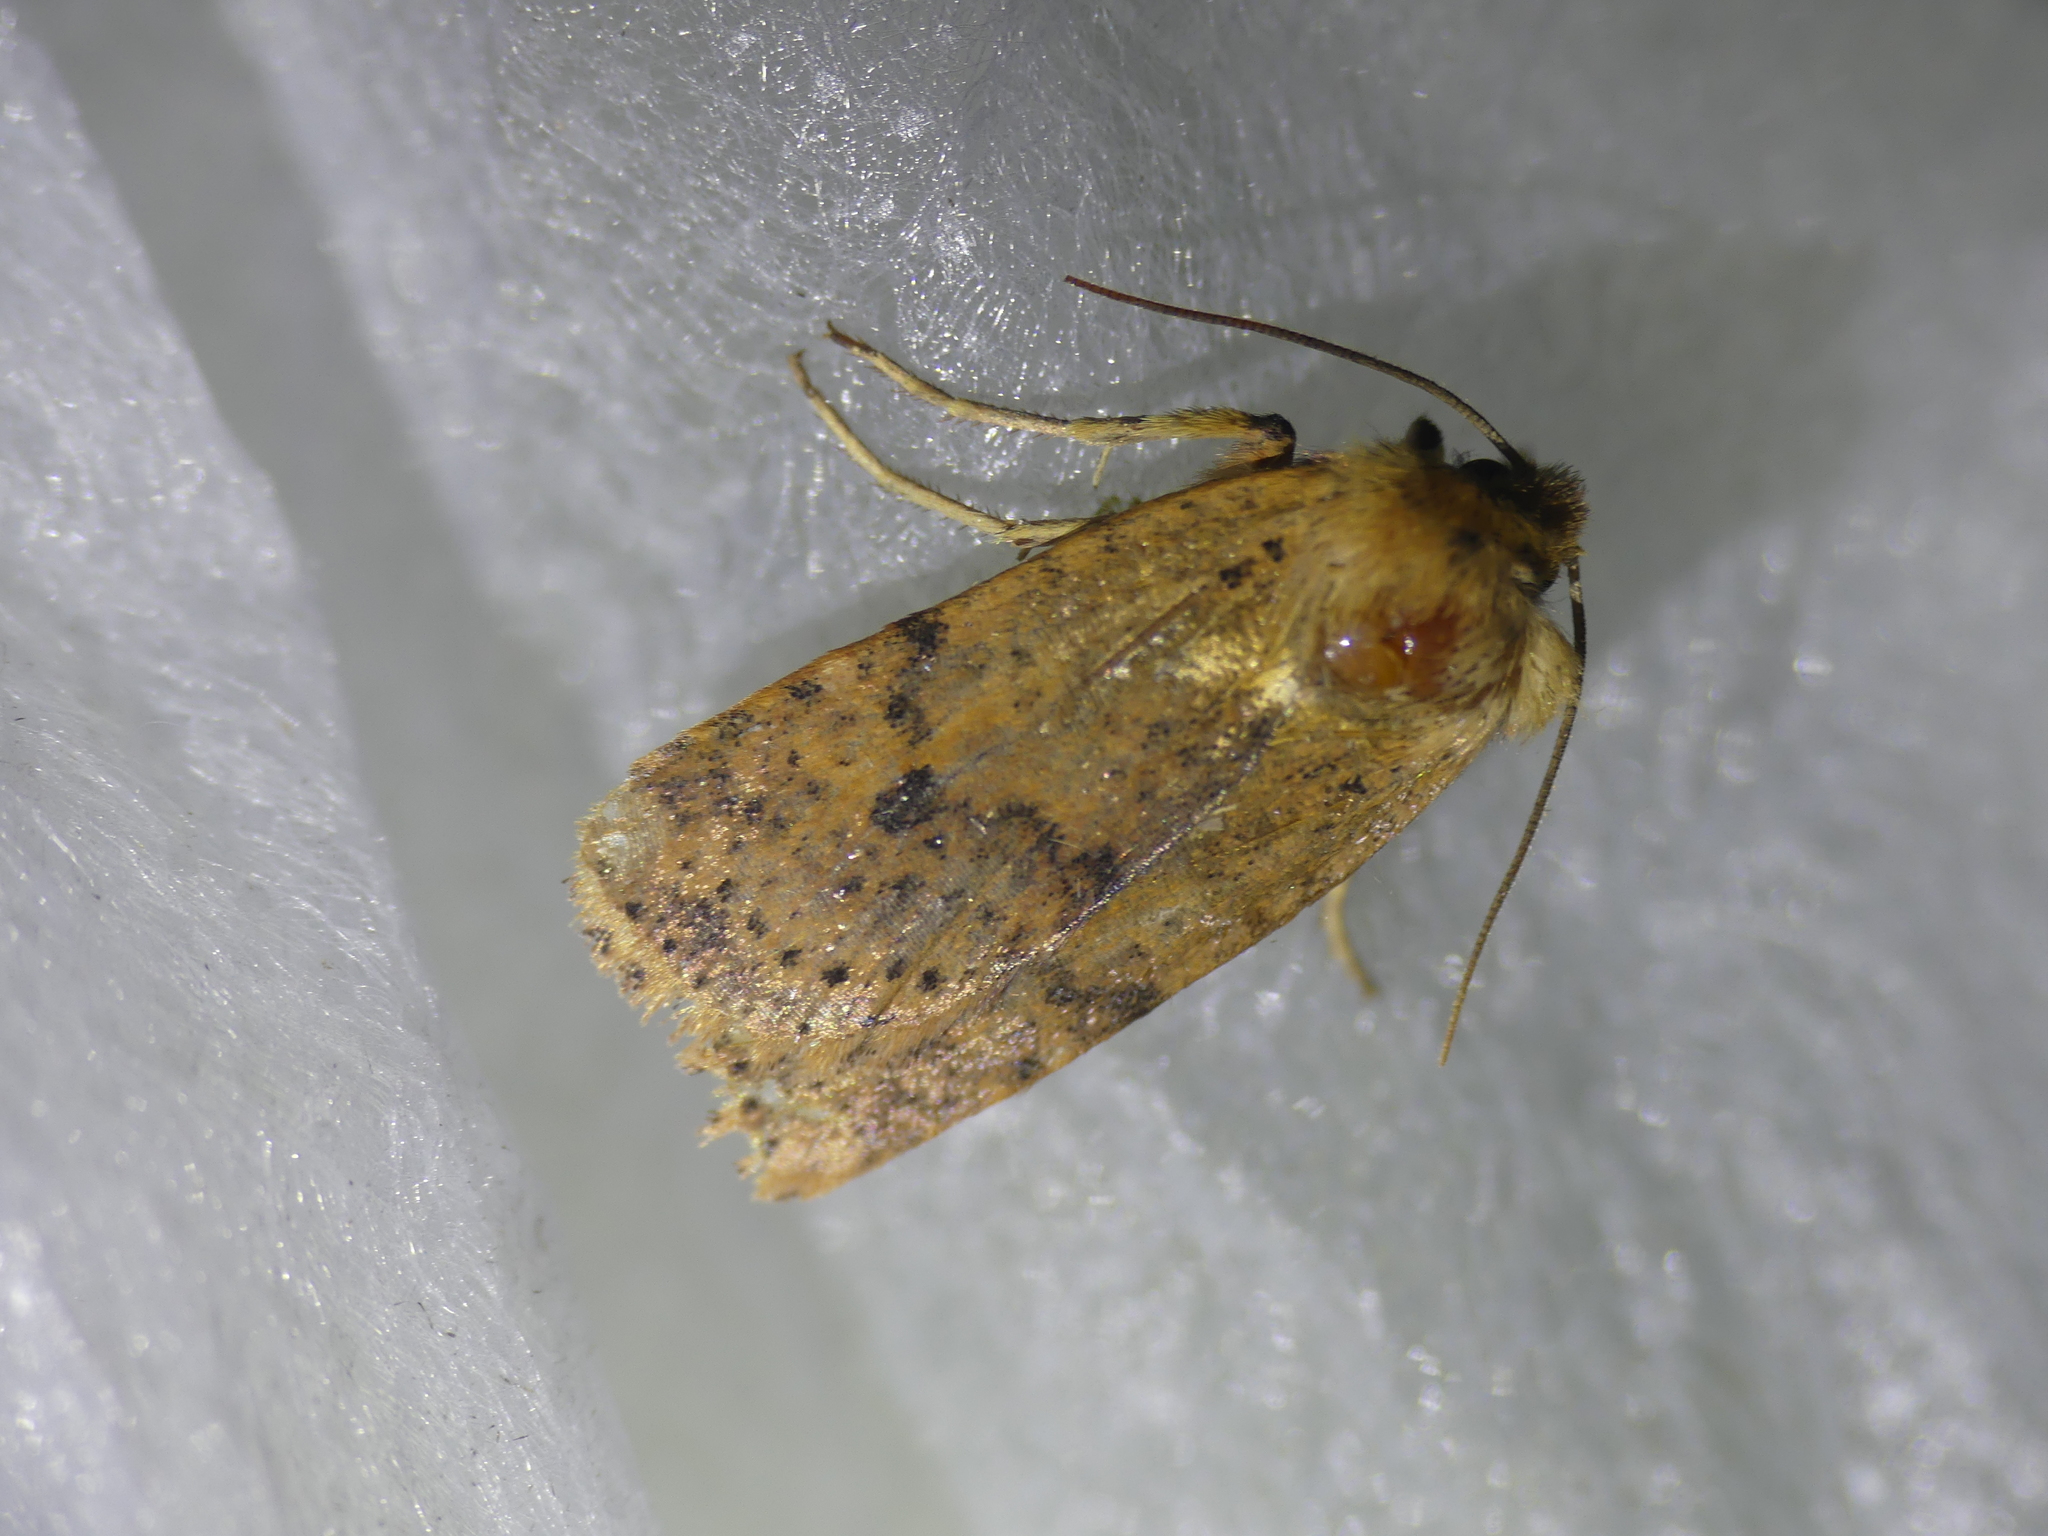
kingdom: Animalia
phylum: Arthropoda
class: Insecta
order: Lepidoptera
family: Noctuidae
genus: Conistra
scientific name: Conistra rubiginea
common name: Dotted chestnut
